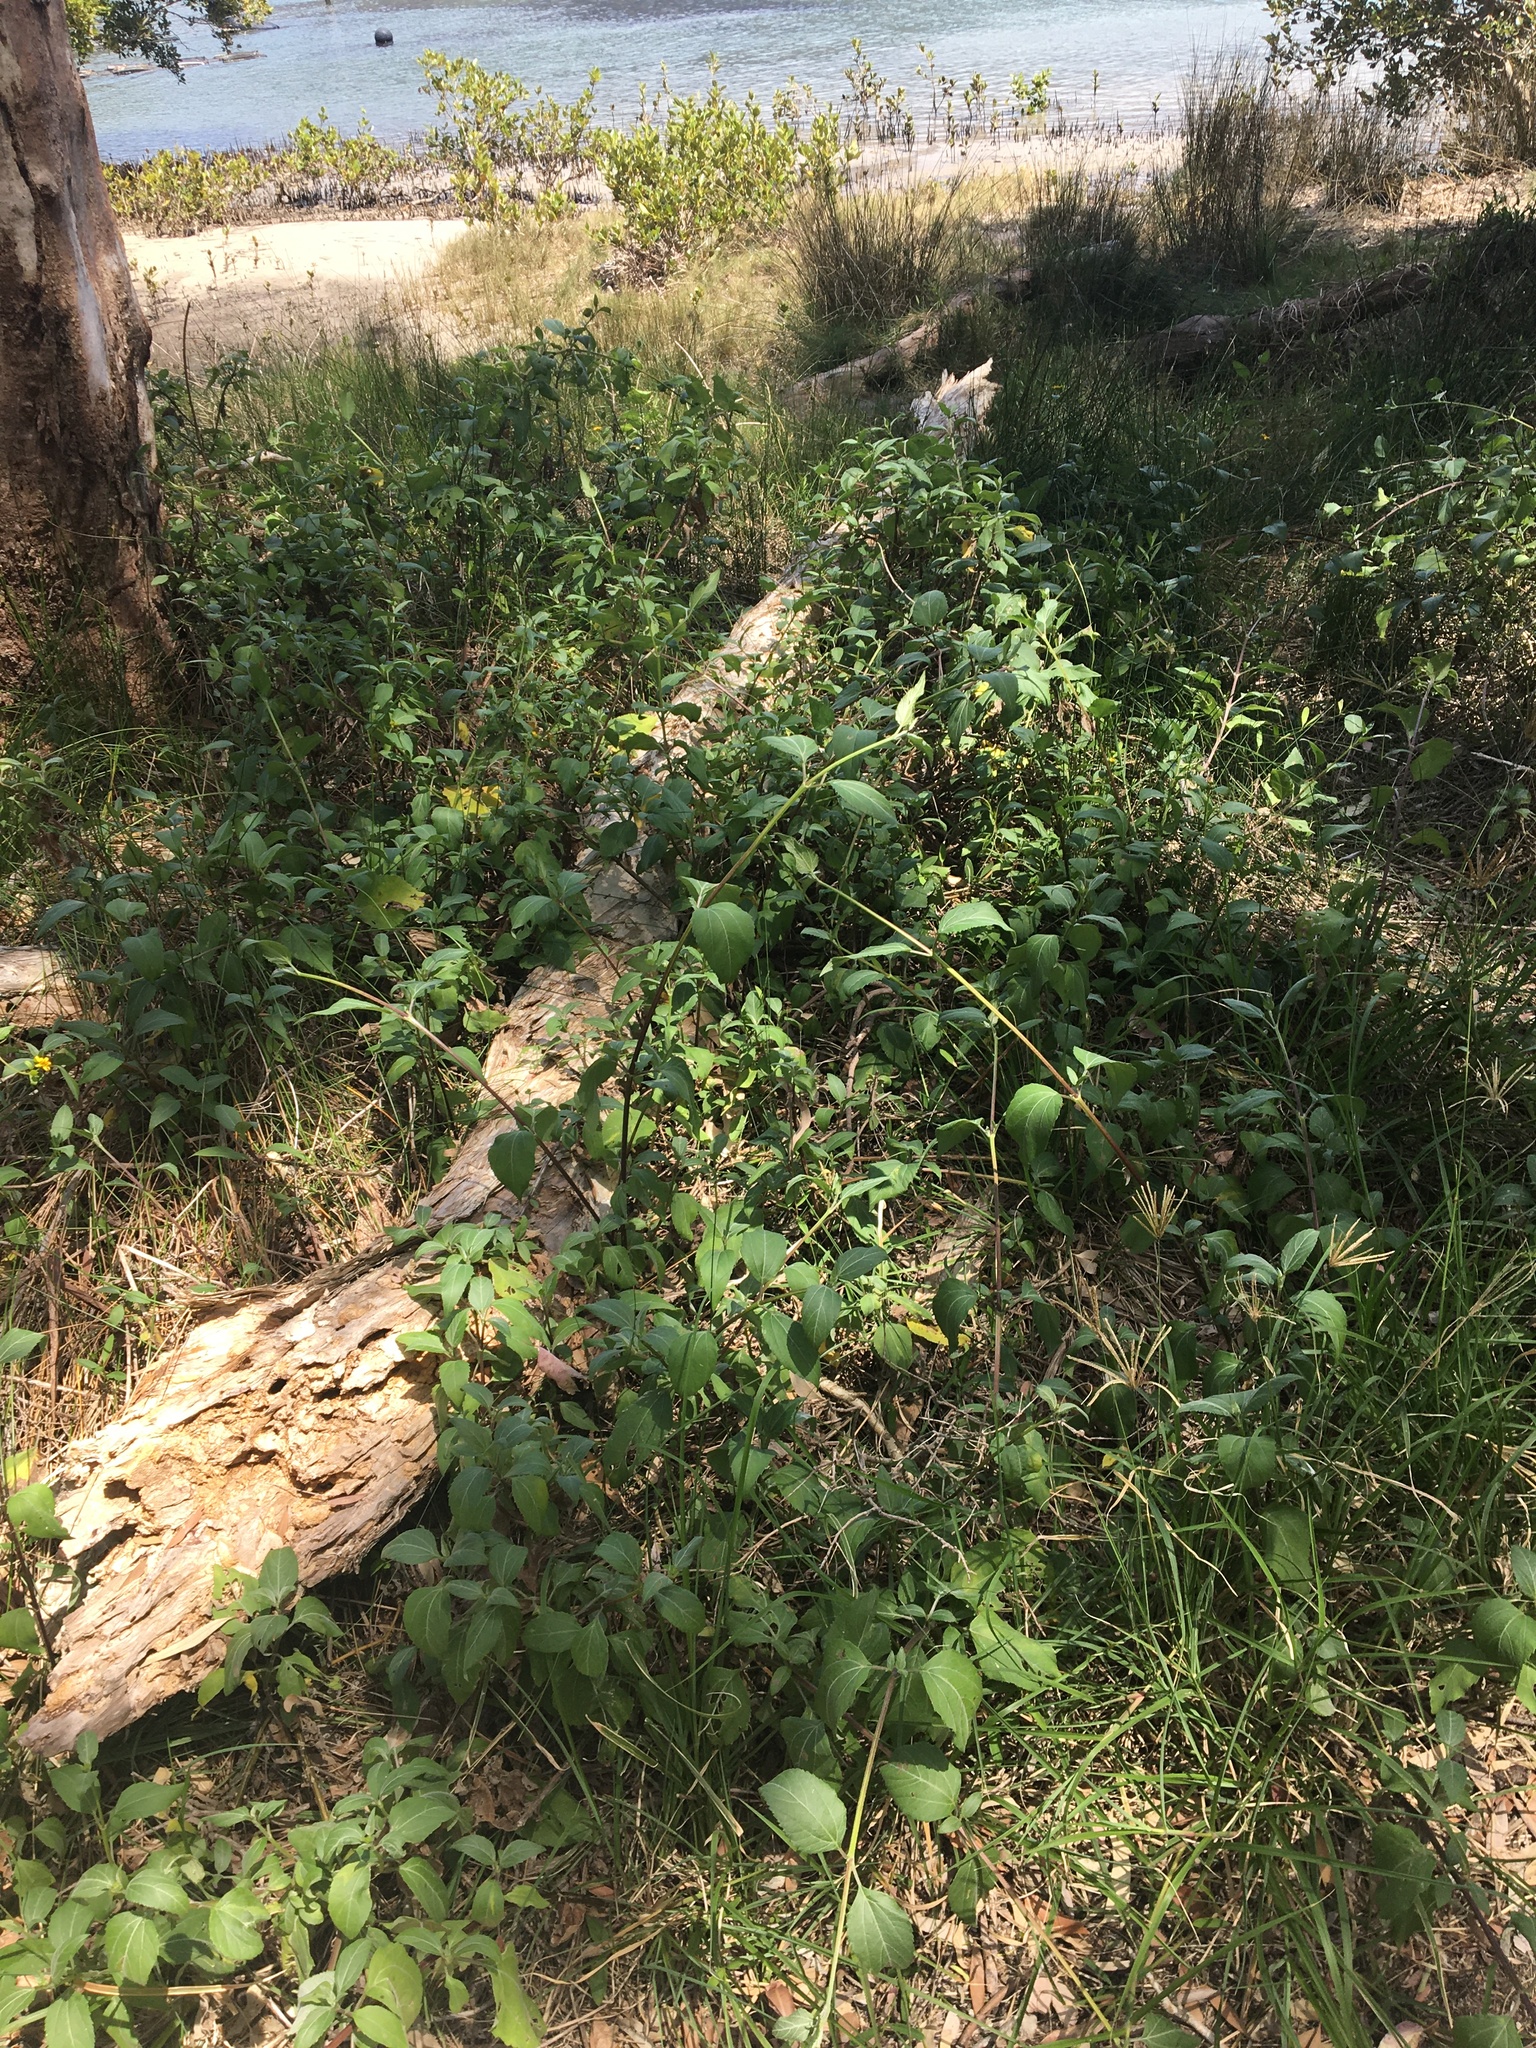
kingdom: Plantae
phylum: Tracheophyta
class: Magnoliopsida
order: Asterales
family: Asteraceae
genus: Wollastonia
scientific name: Wollastonia uniflora
